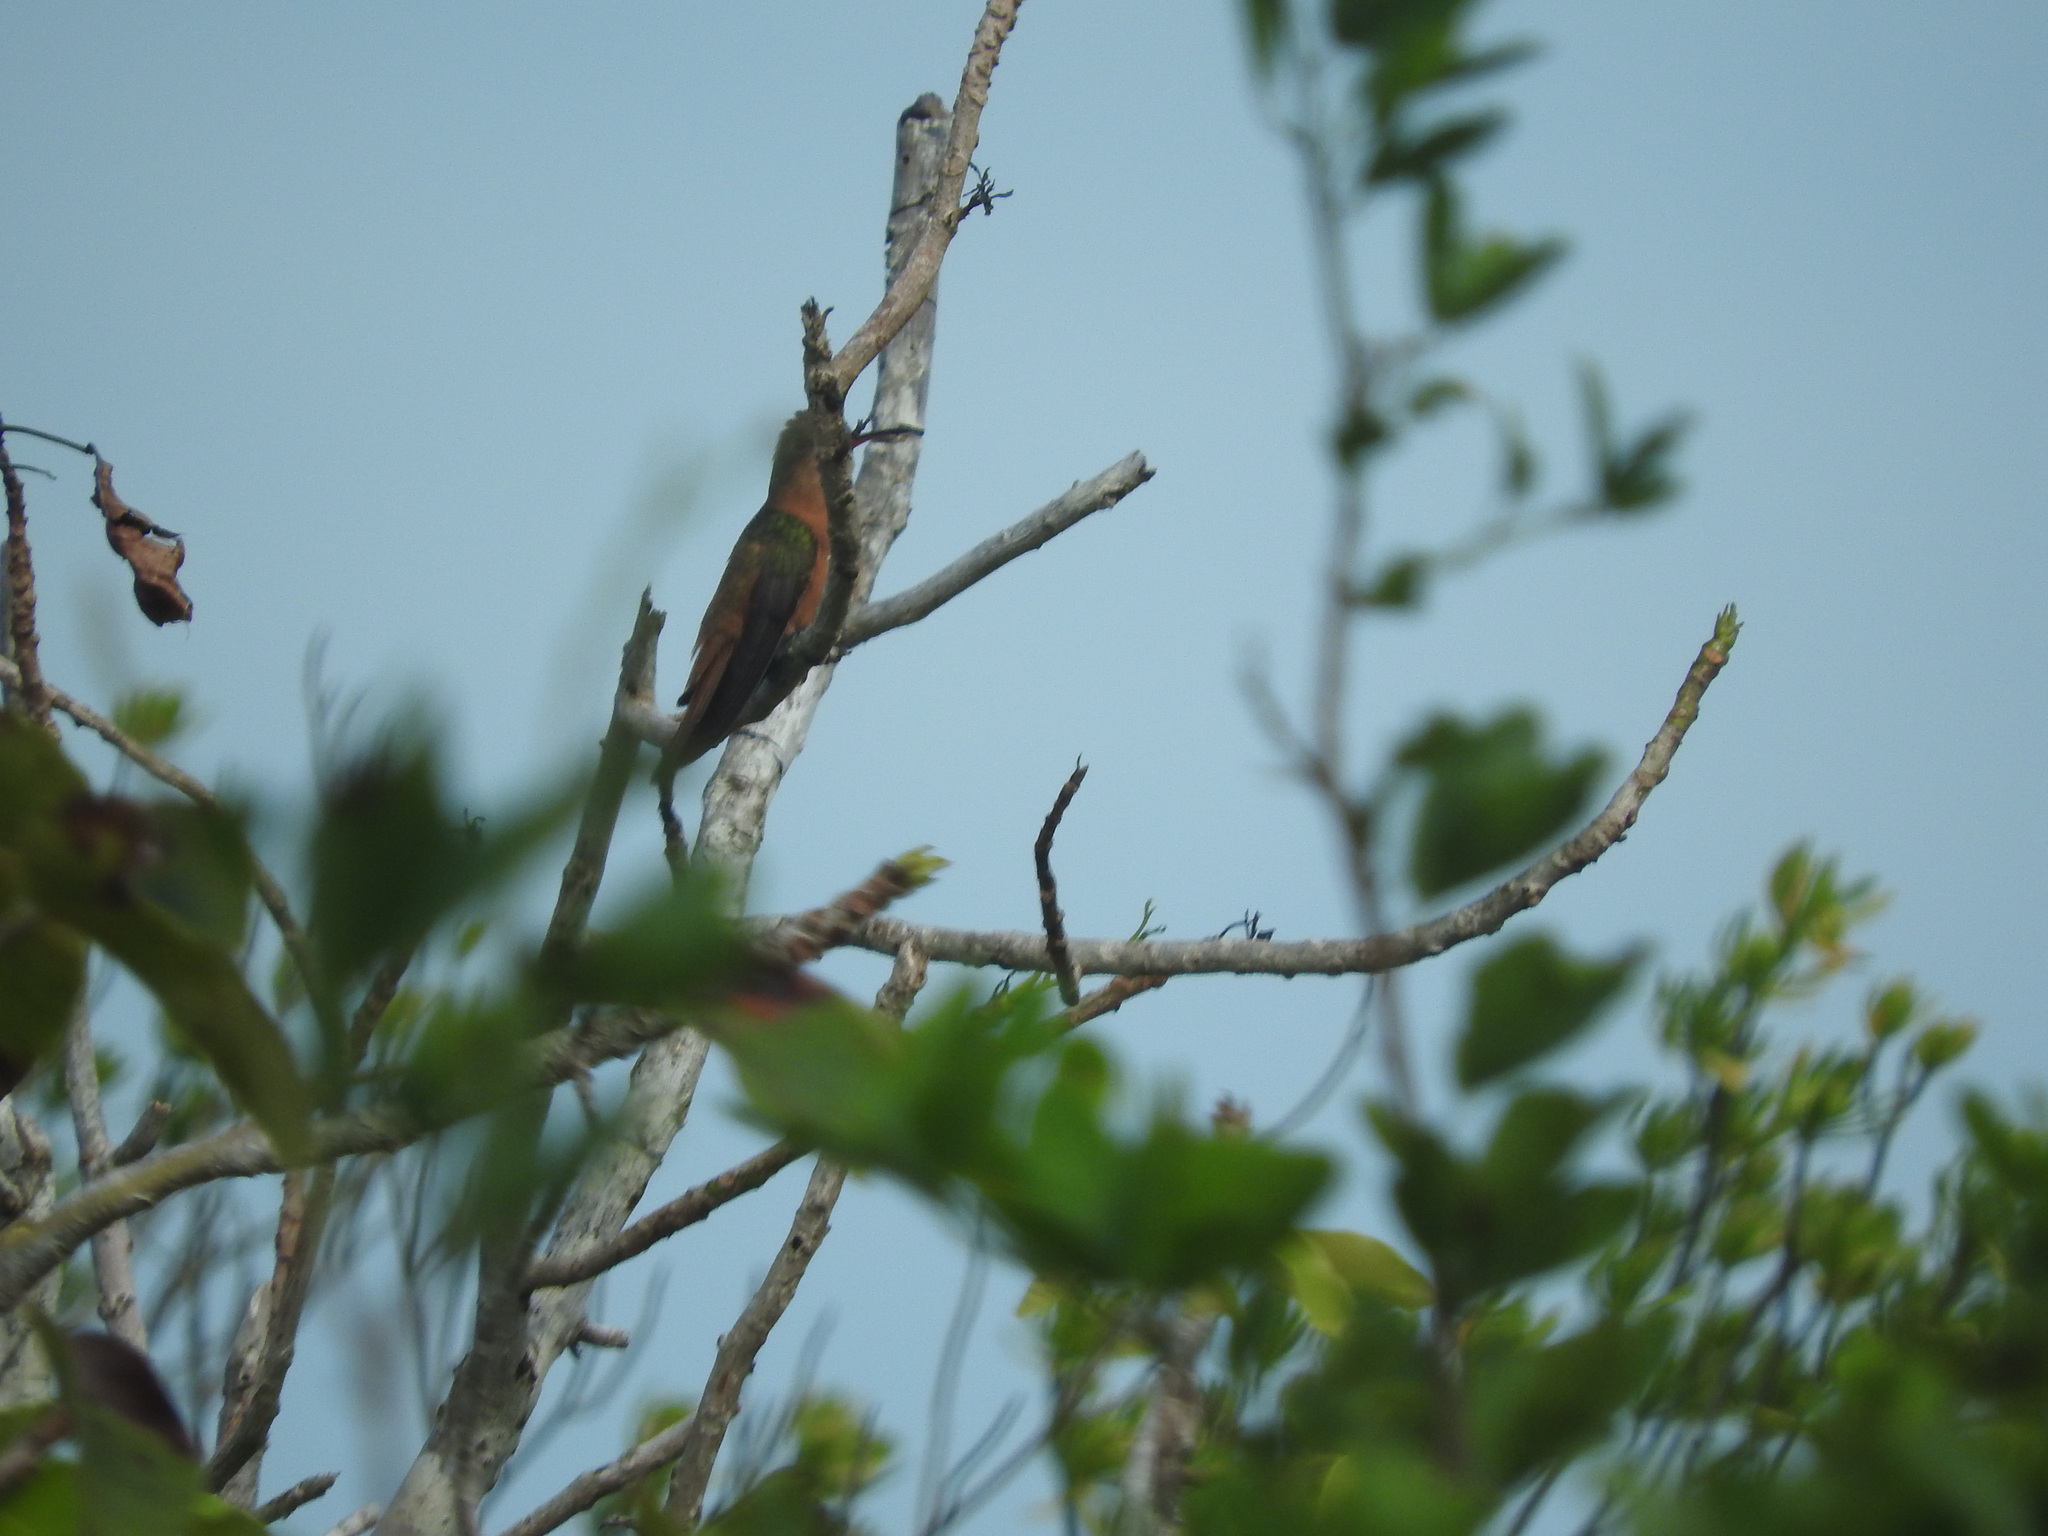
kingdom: Animalia
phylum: Chordata
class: Aves
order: Apodiformes
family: Trochilidae
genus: Amazilia
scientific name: Amazilia rutila
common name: Cinnamon hummingbird
